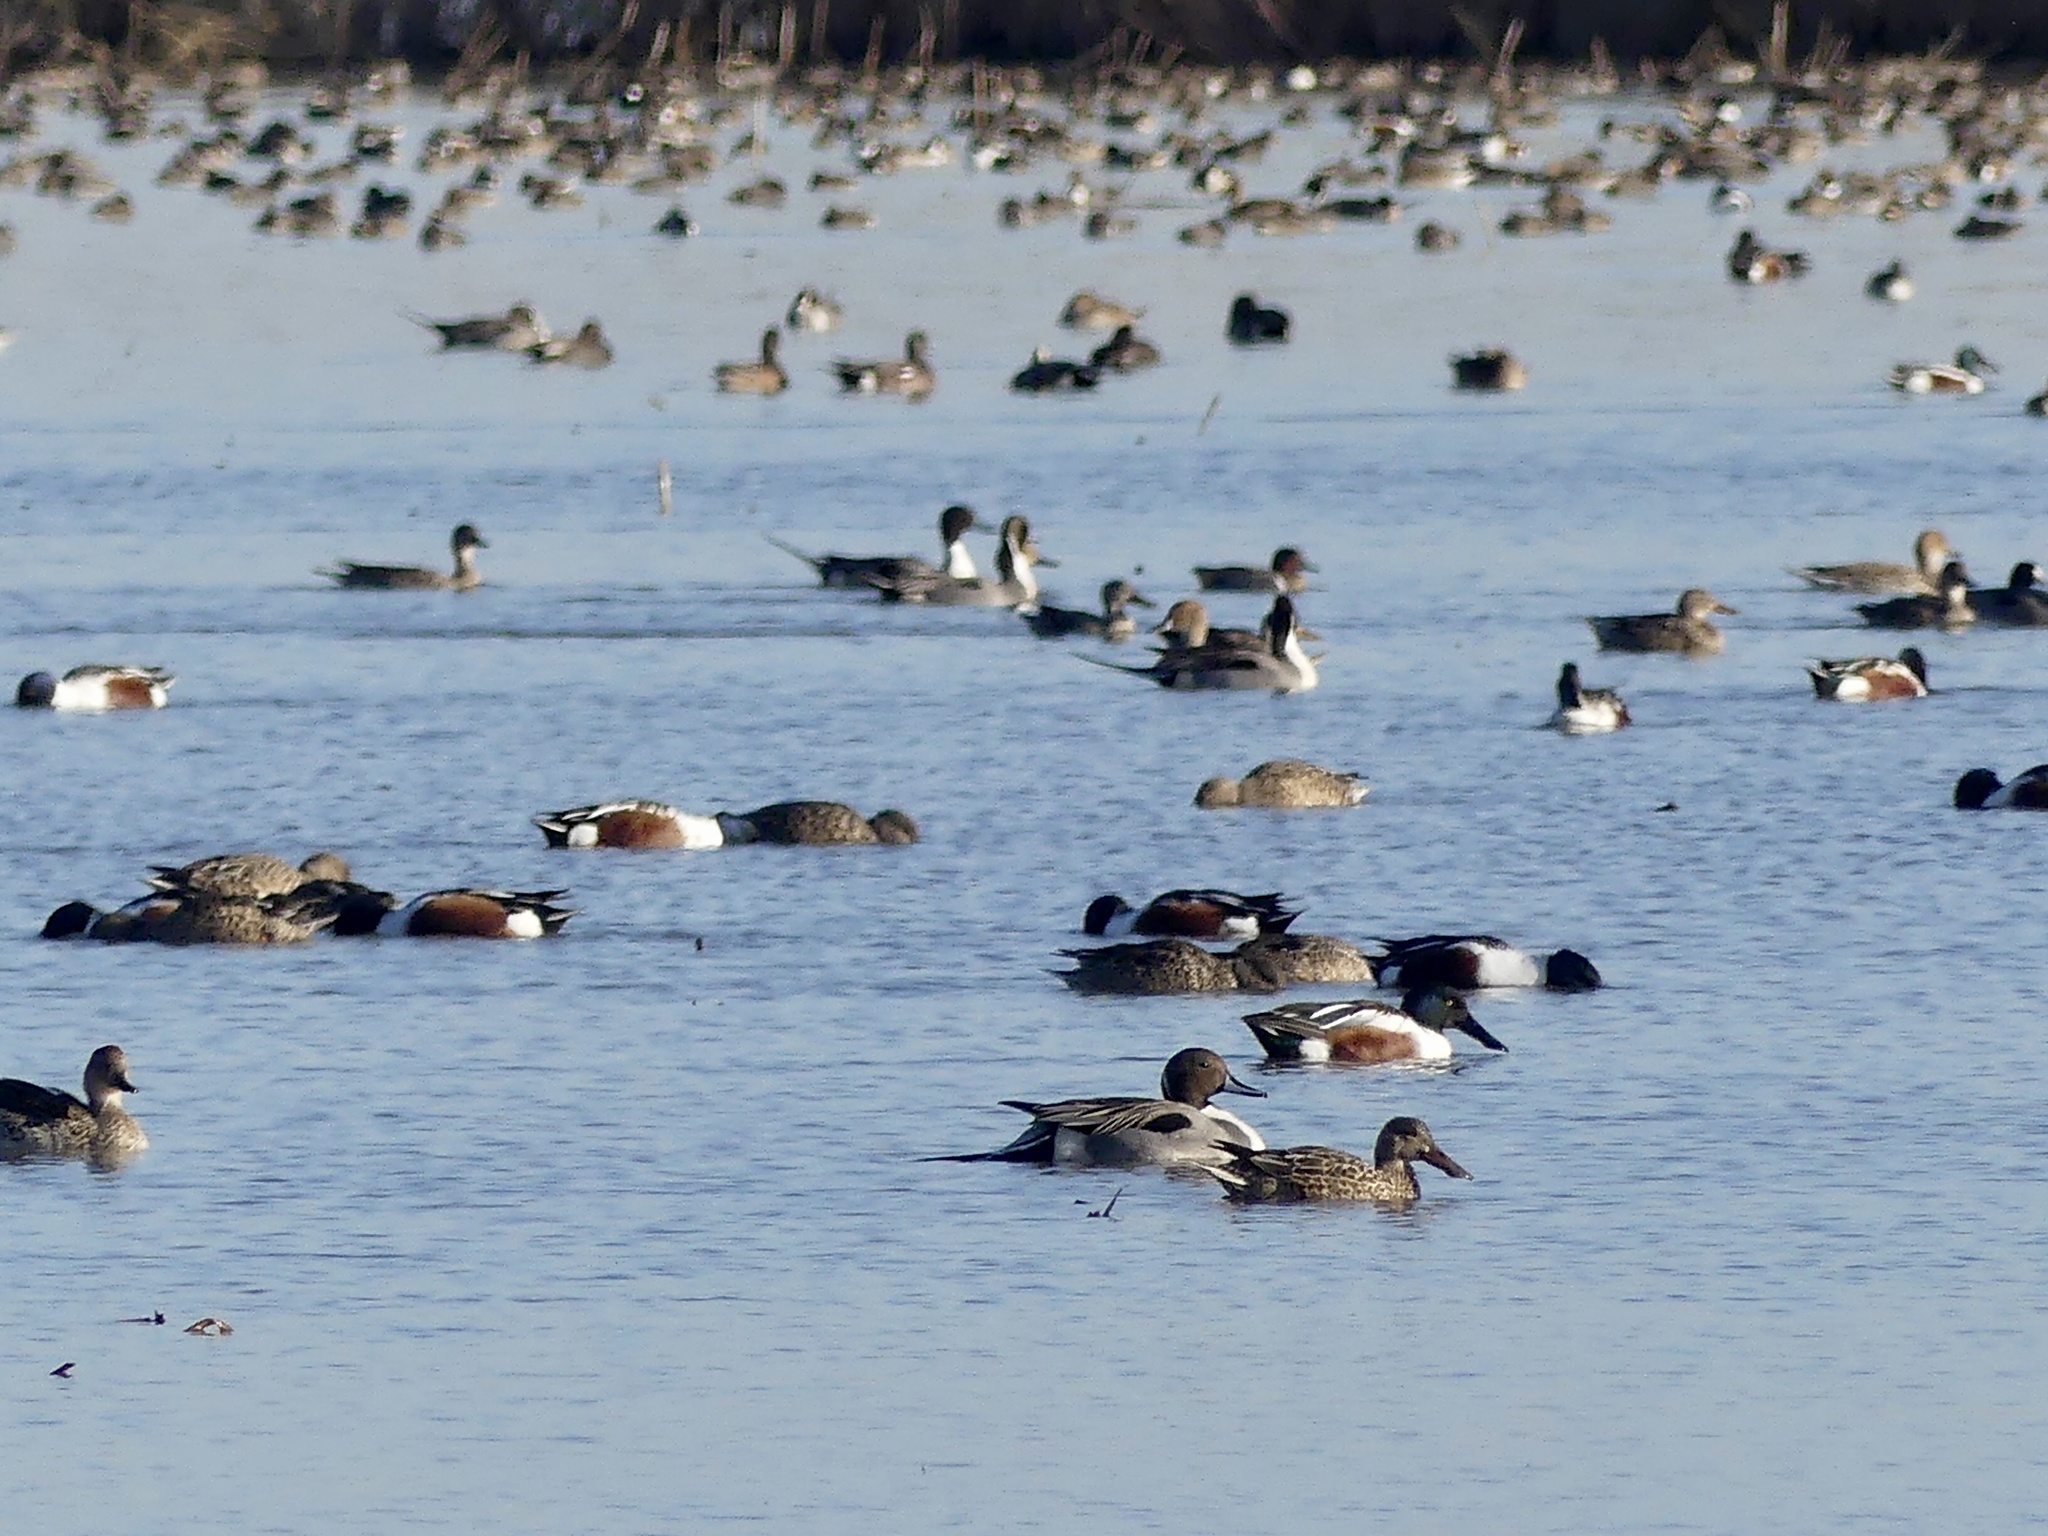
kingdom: Animalia
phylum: Chordata
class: Aves
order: Anseriformes
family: Anatidae
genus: Spatula
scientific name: Spatula clypeata
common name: Northern shoveler
